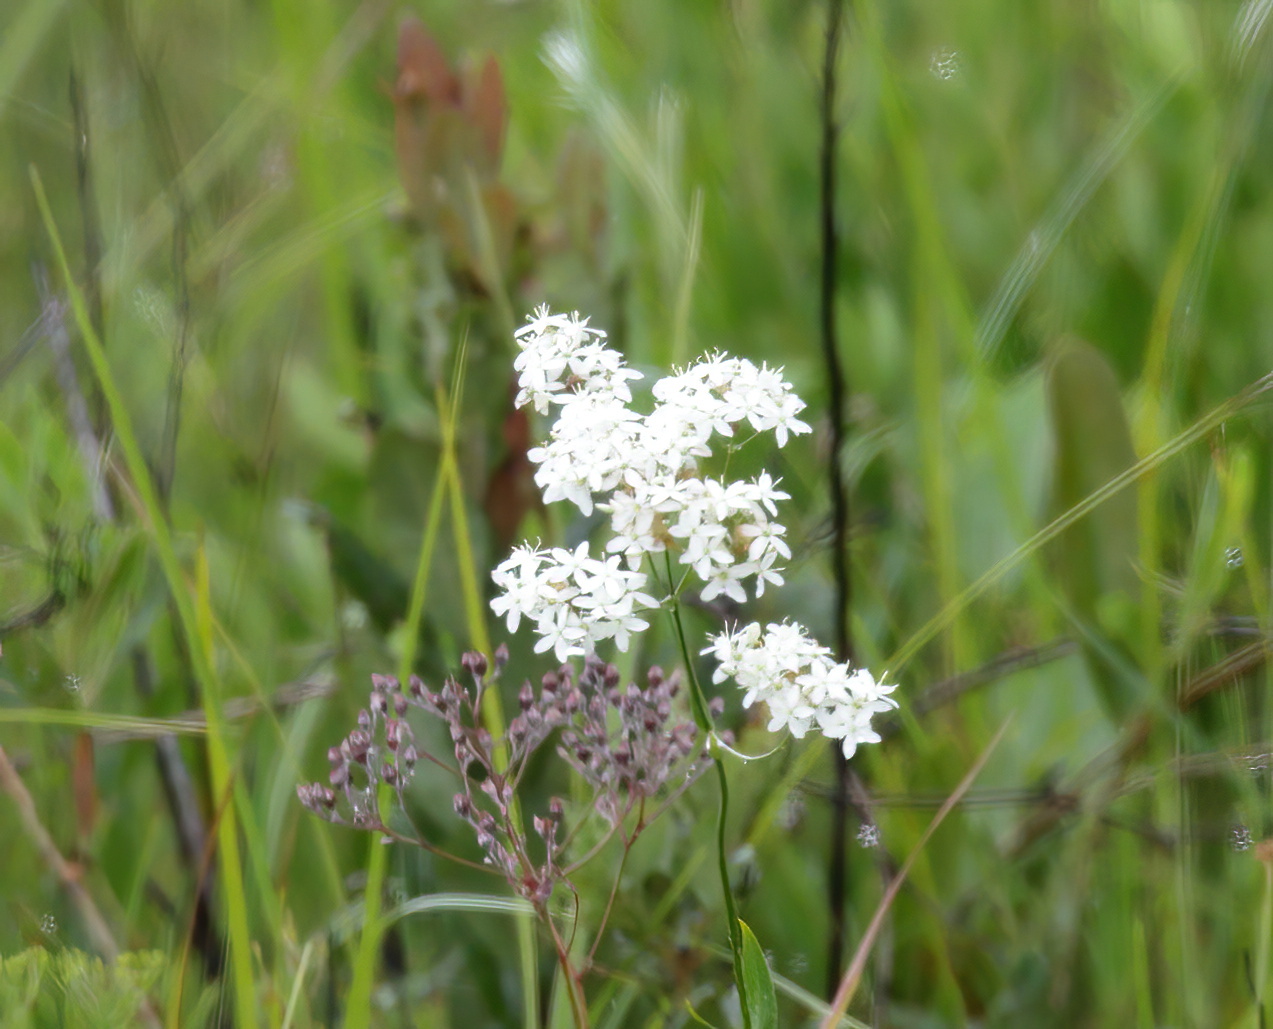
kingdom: Plantae
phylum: Tracheophyta
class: Magnoliopsida
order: Gentianales
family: Gentianaceae
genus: Sabatia
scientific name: Sabatia macrophylla
